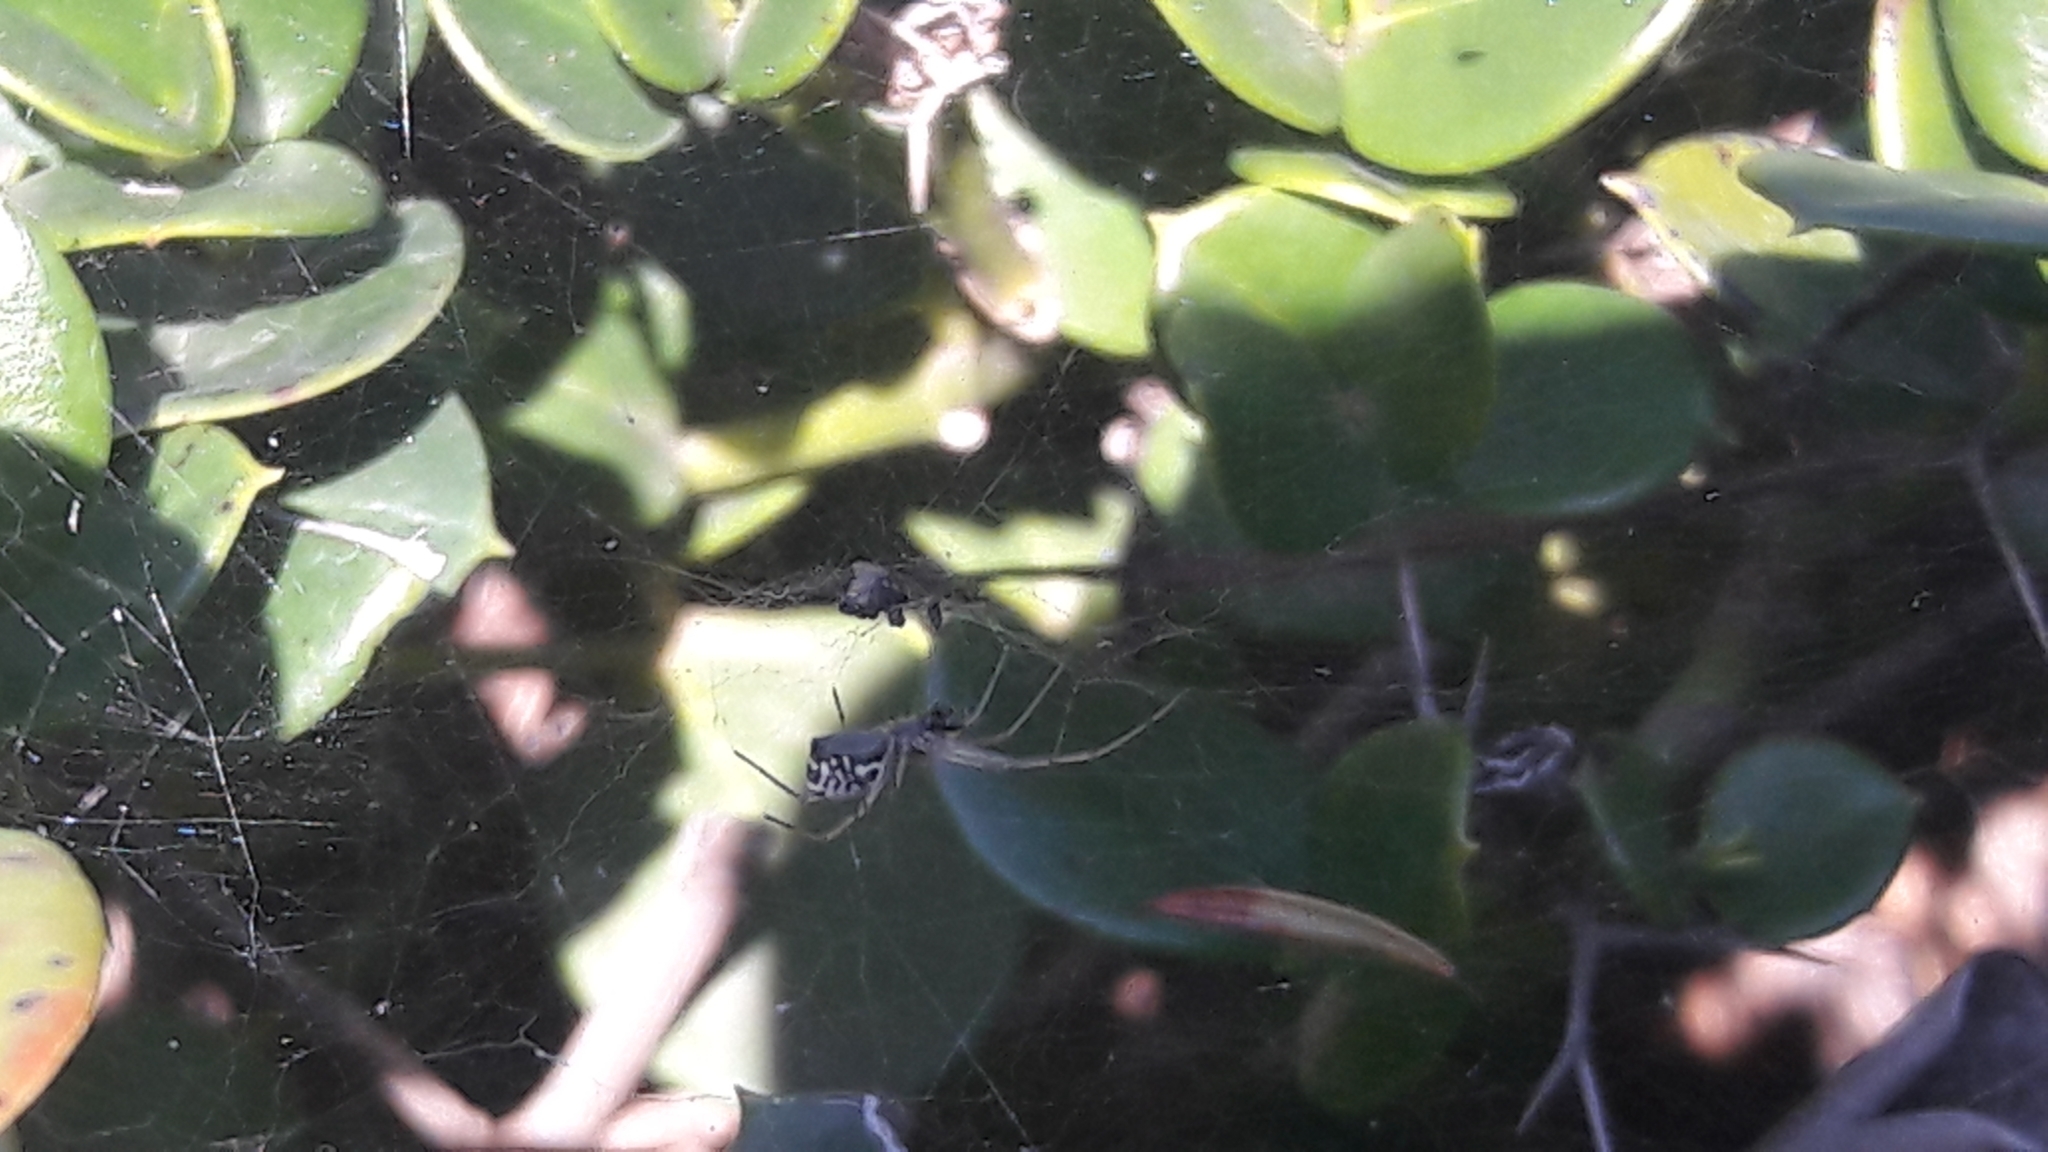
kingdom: Animalia
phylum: Arthropoda
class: Arachnida
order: Araneae
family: Linyphiidae
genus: Frontinellina
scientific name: Frontinellina frutetorum
